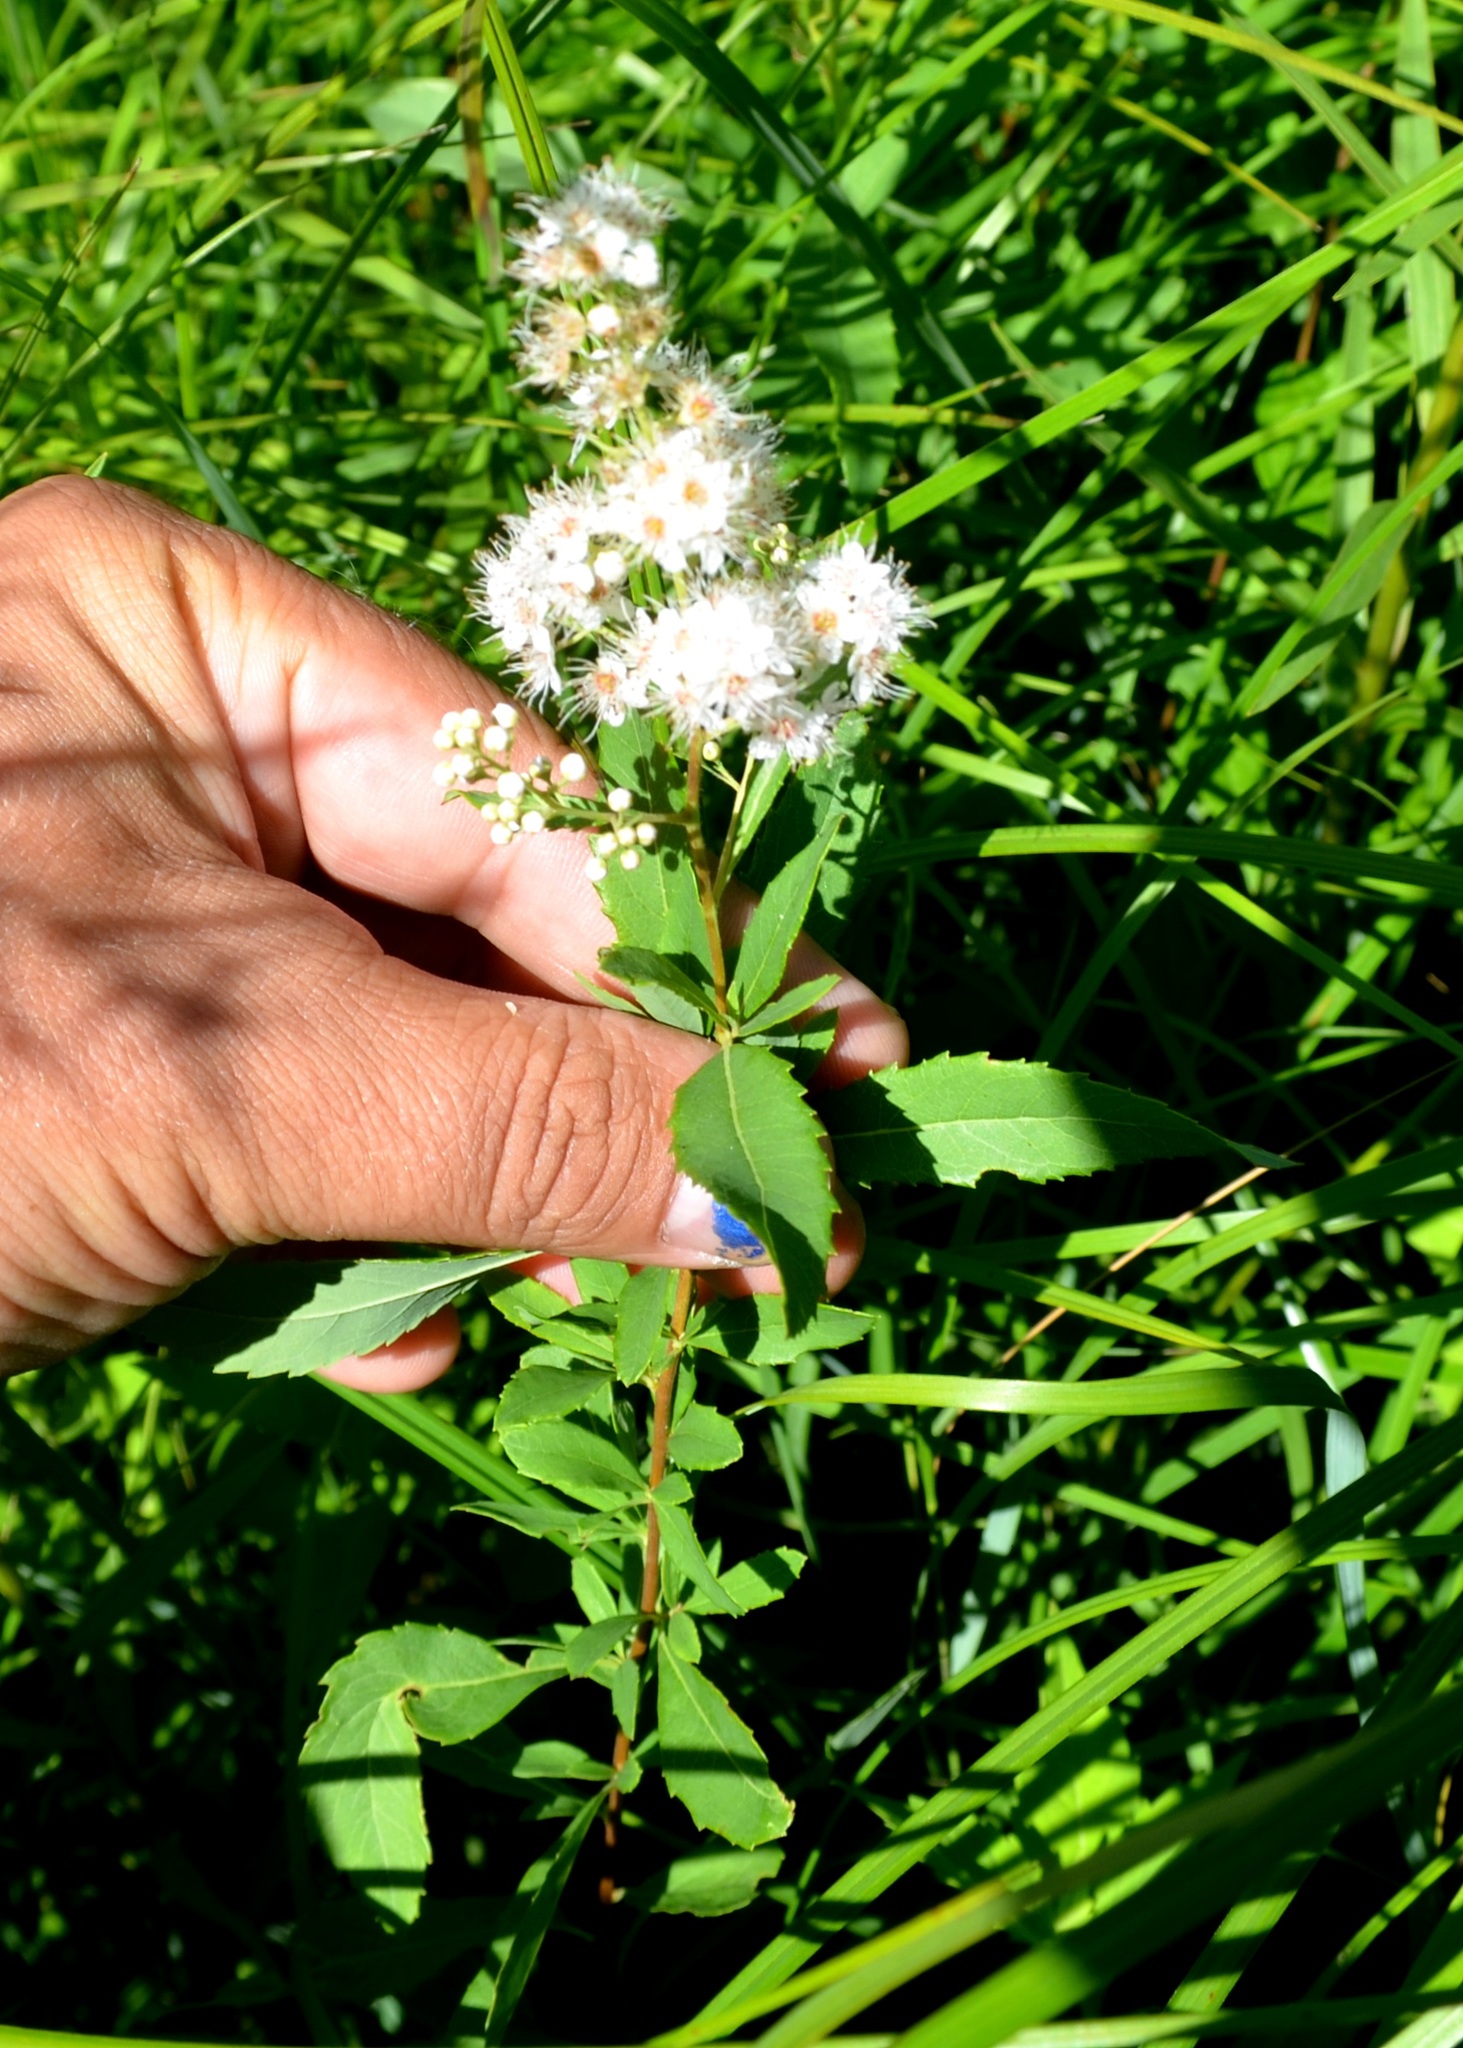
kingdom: Plantae
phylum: Tracheophyta
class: Magnoliopsida
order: Rosales
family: Rosaceae
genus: Spiraea
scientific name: Spiraea alba
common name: Pale bridewort
